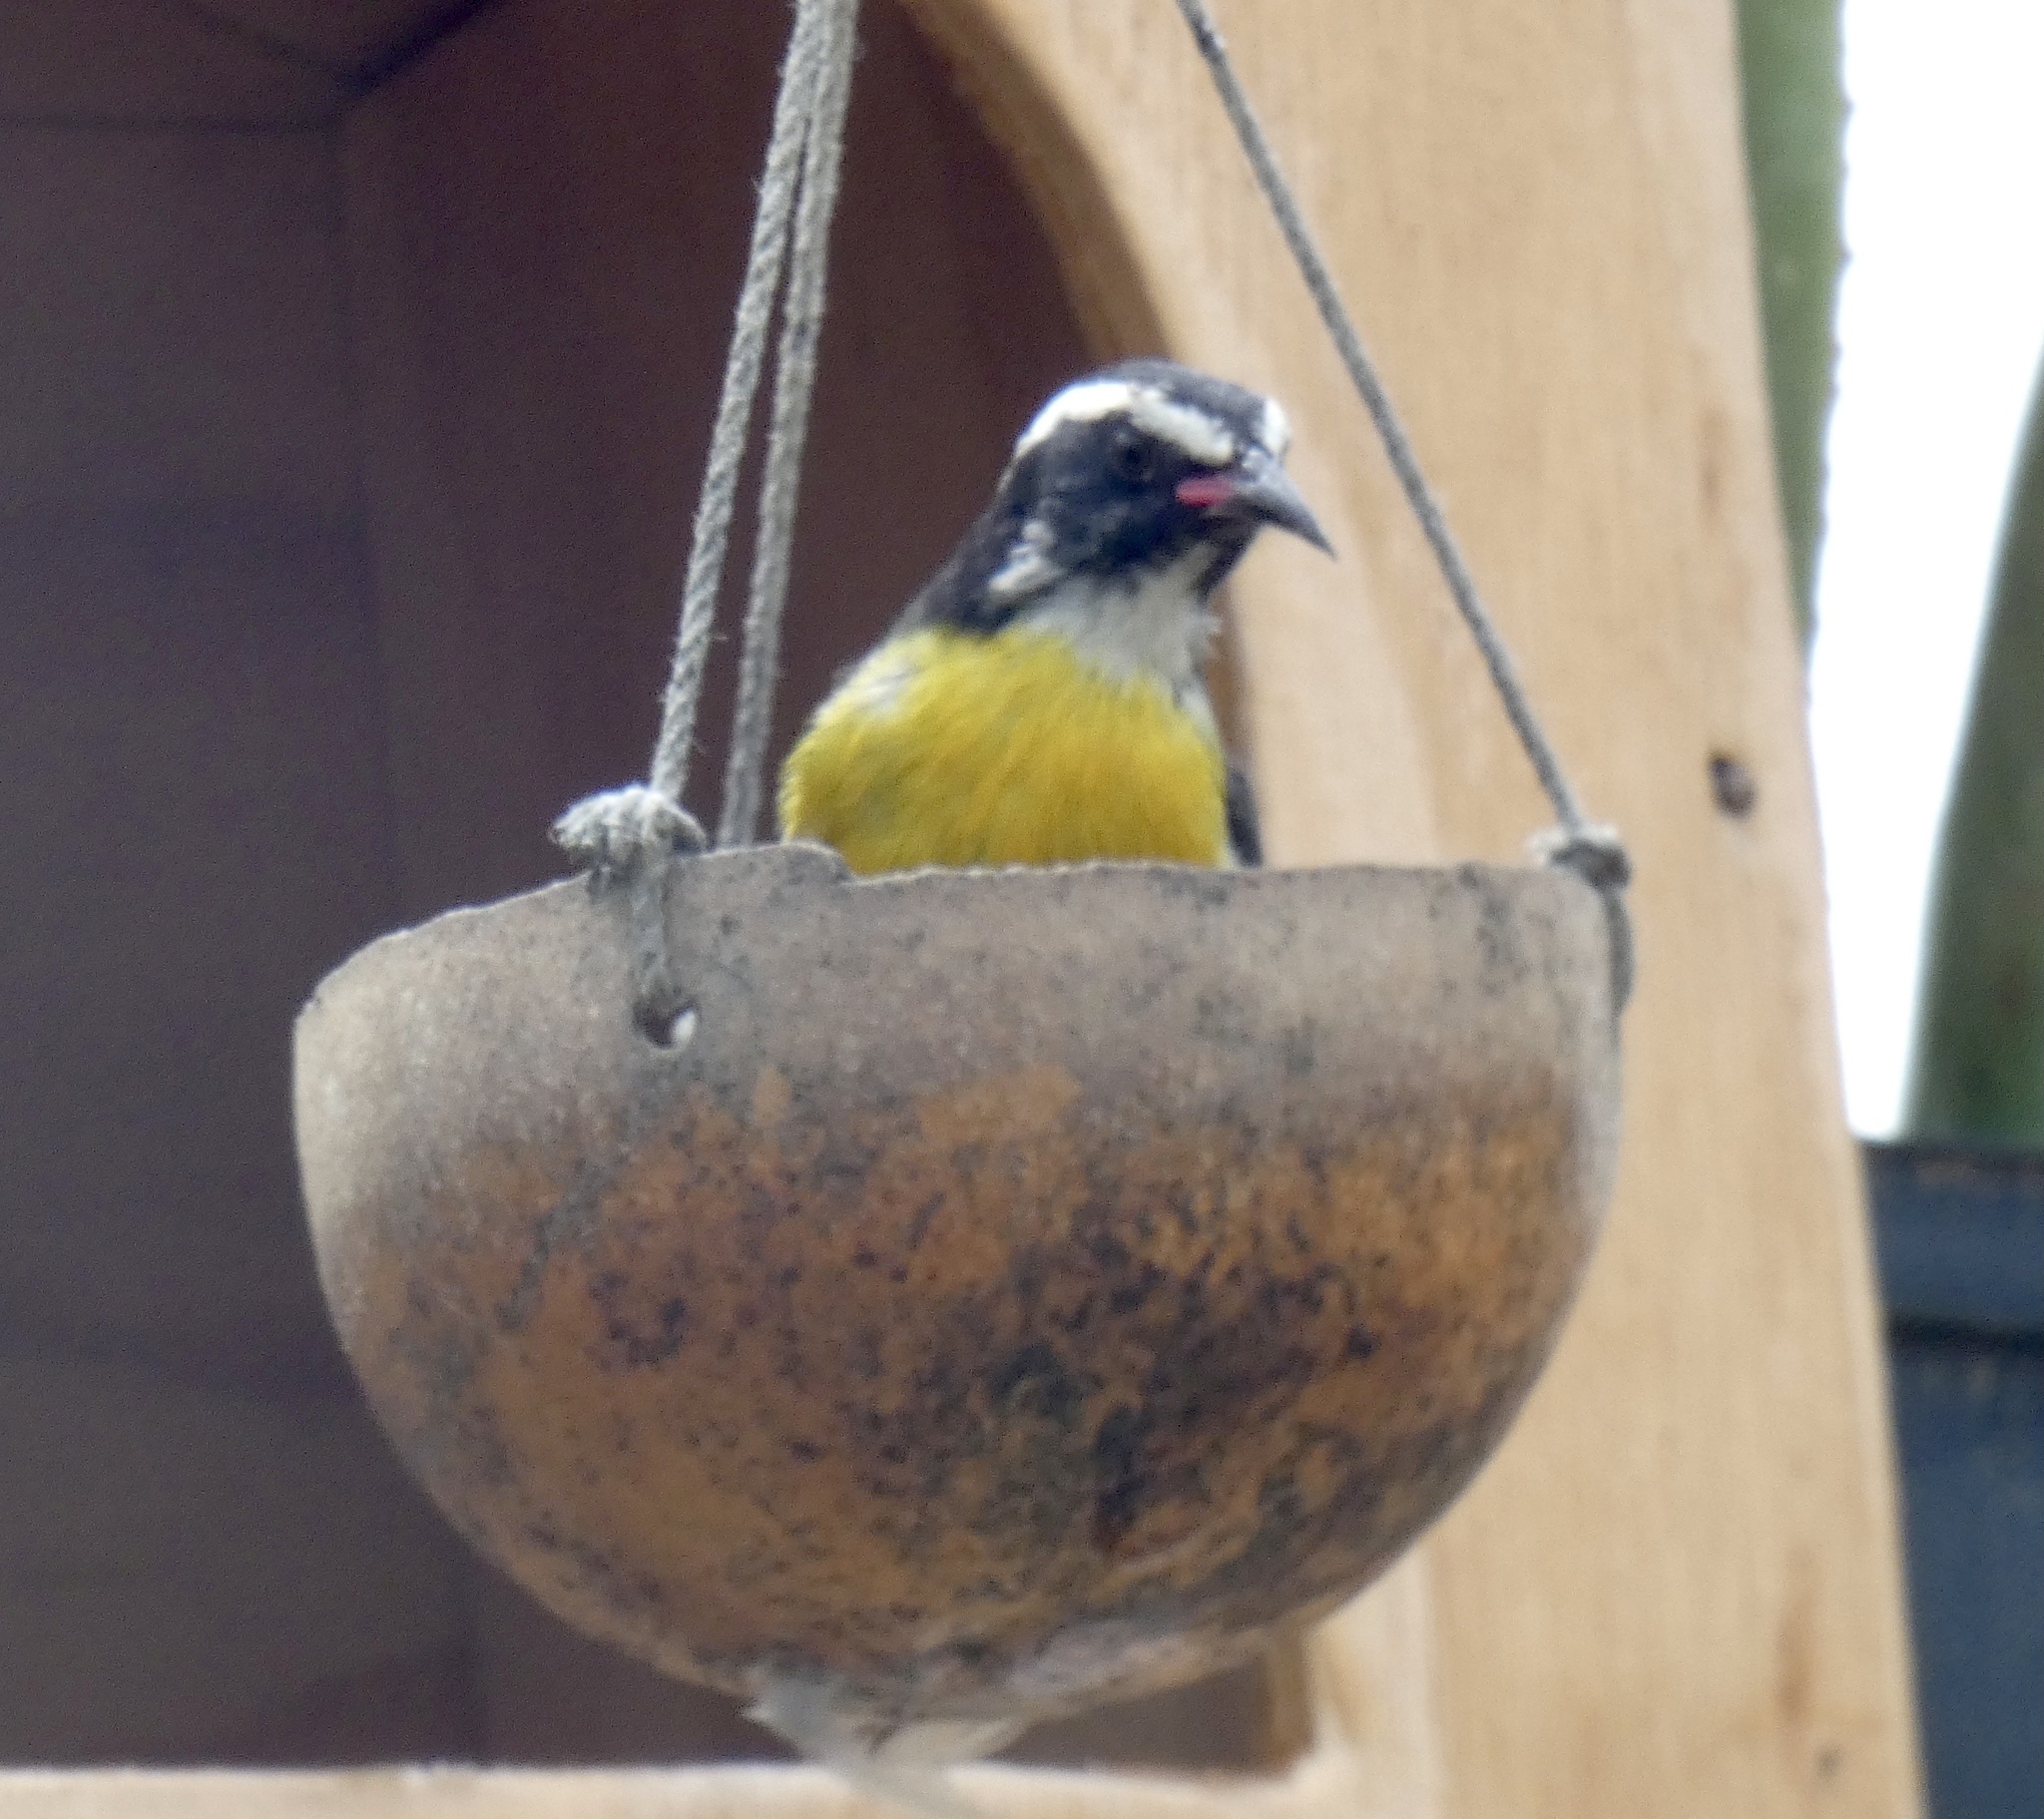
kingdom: Animalia
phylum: Chordata
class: Aves
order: Passeriformes
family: Thraupidae
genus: Coereba
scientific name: Coereba flaveola
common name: Bananaquit
